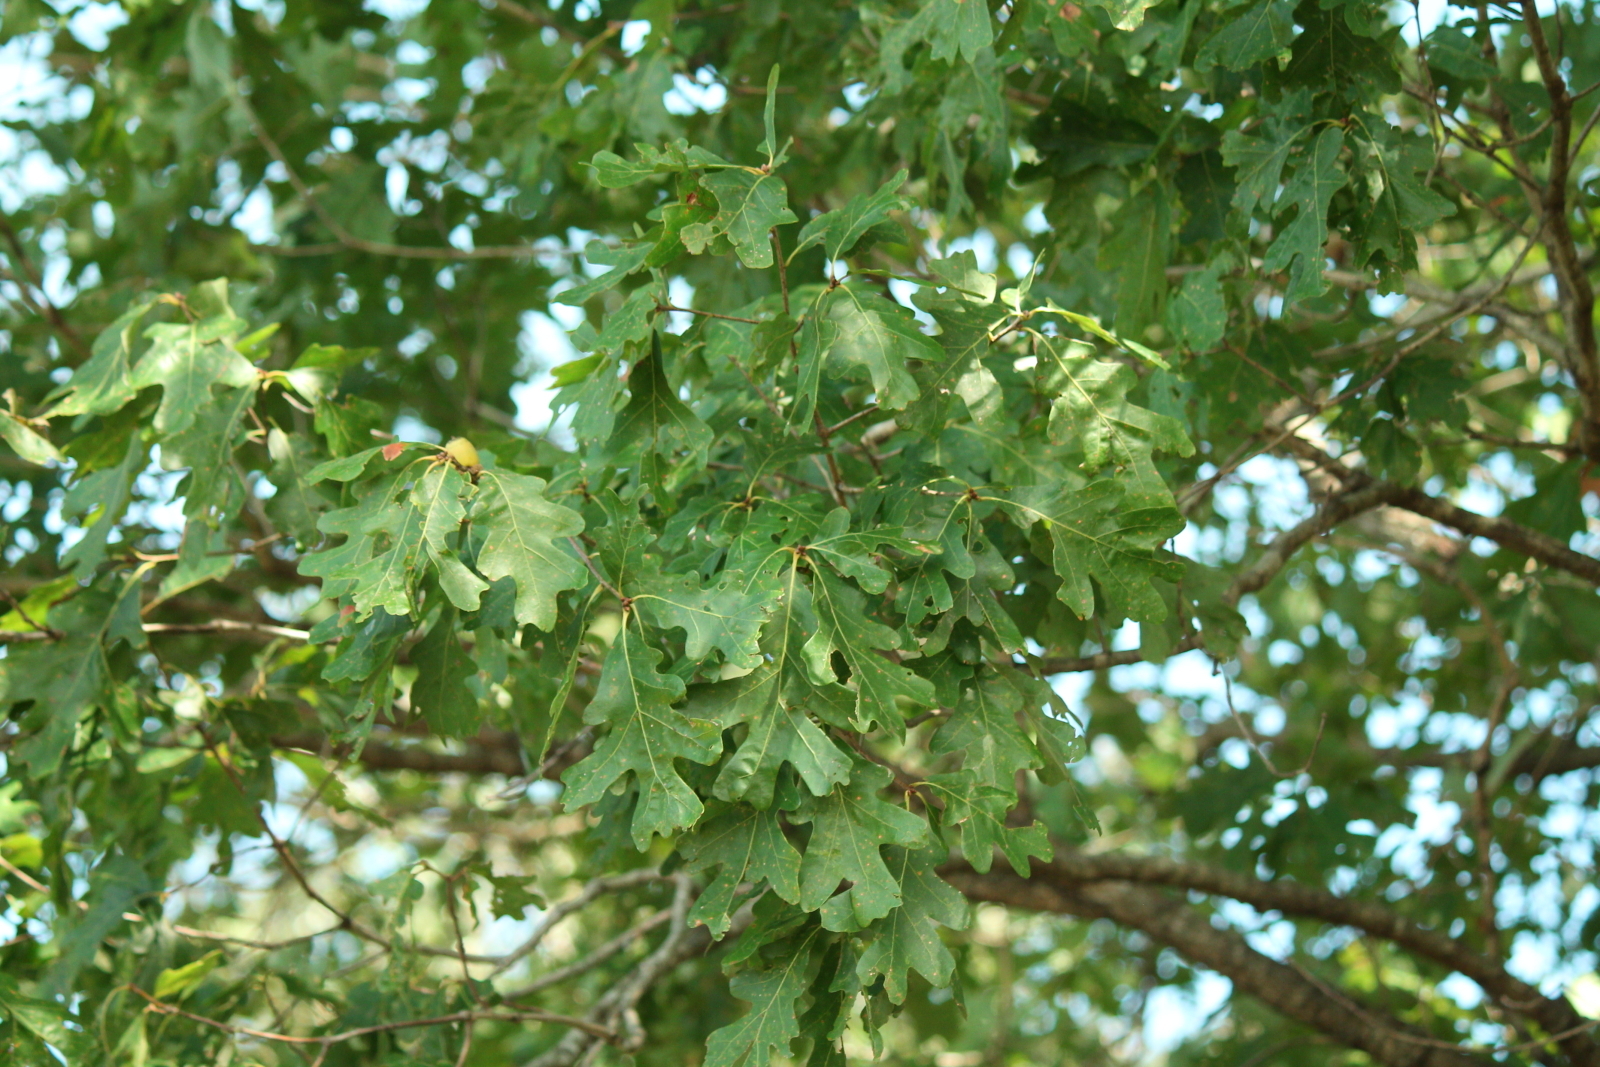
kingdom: Plantae
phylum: Tracheophyta
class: Magnoliopsida
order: Fagales
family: Fagaceae
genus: Quercus
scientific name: Quercus stellata
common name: Post oak
